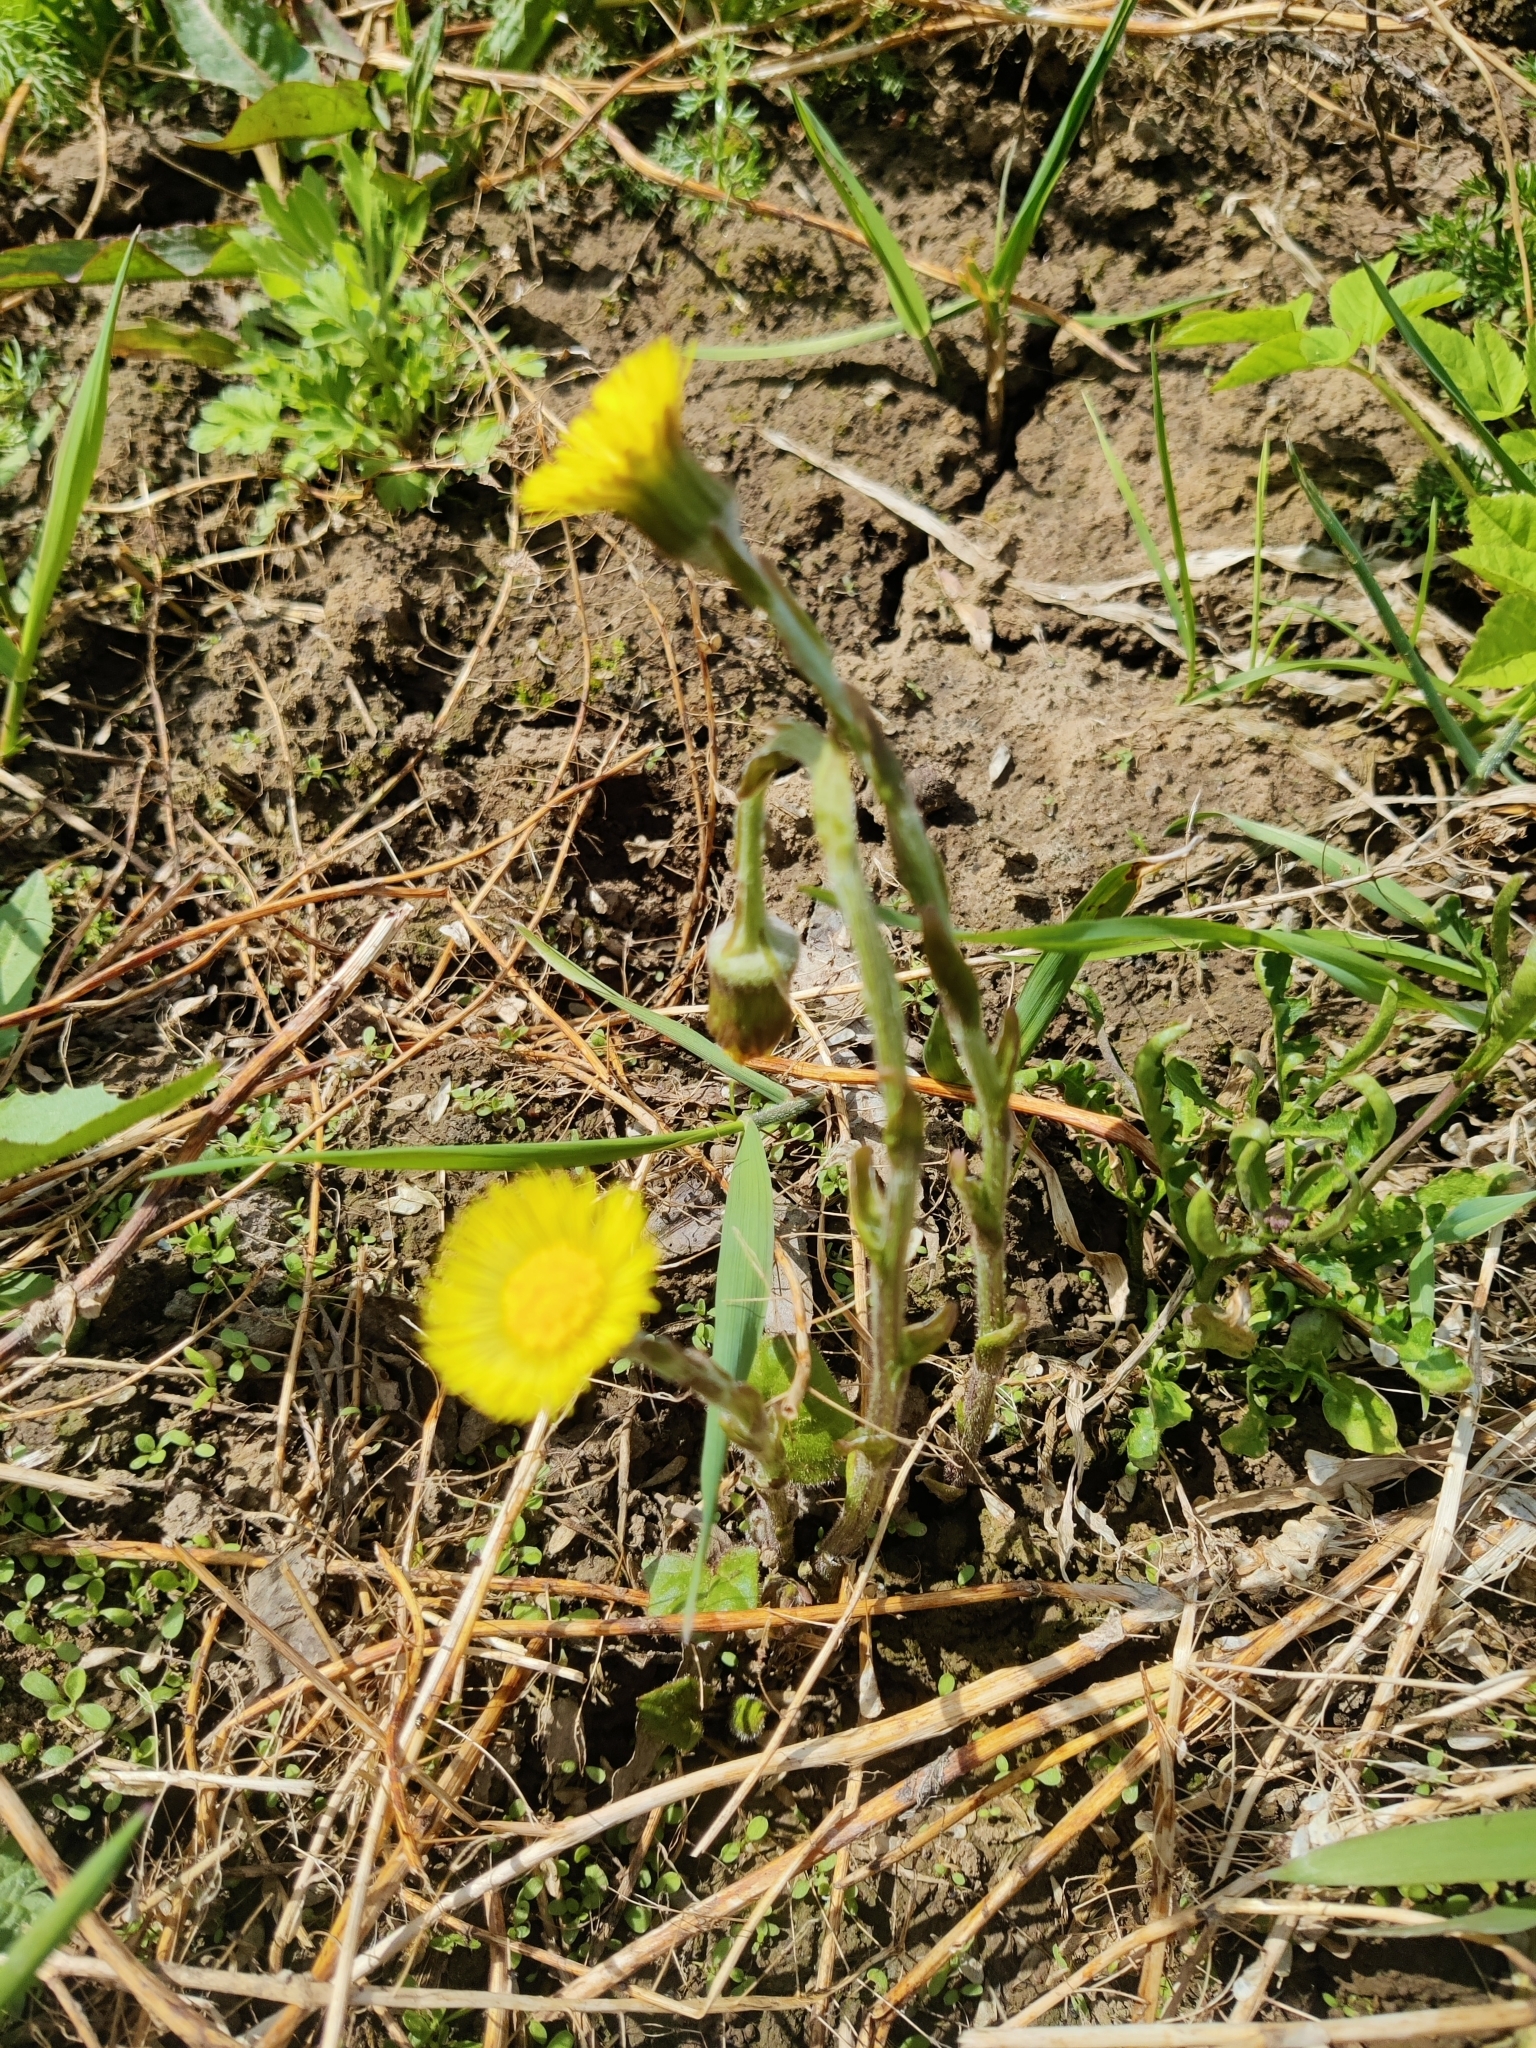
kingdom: Plantae
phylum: Tracheophyta
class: Magnoliopsida
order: Asterales
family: Asteraceae
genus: Tussilago
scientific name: Tussilago farfara
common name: Coltsfoot
